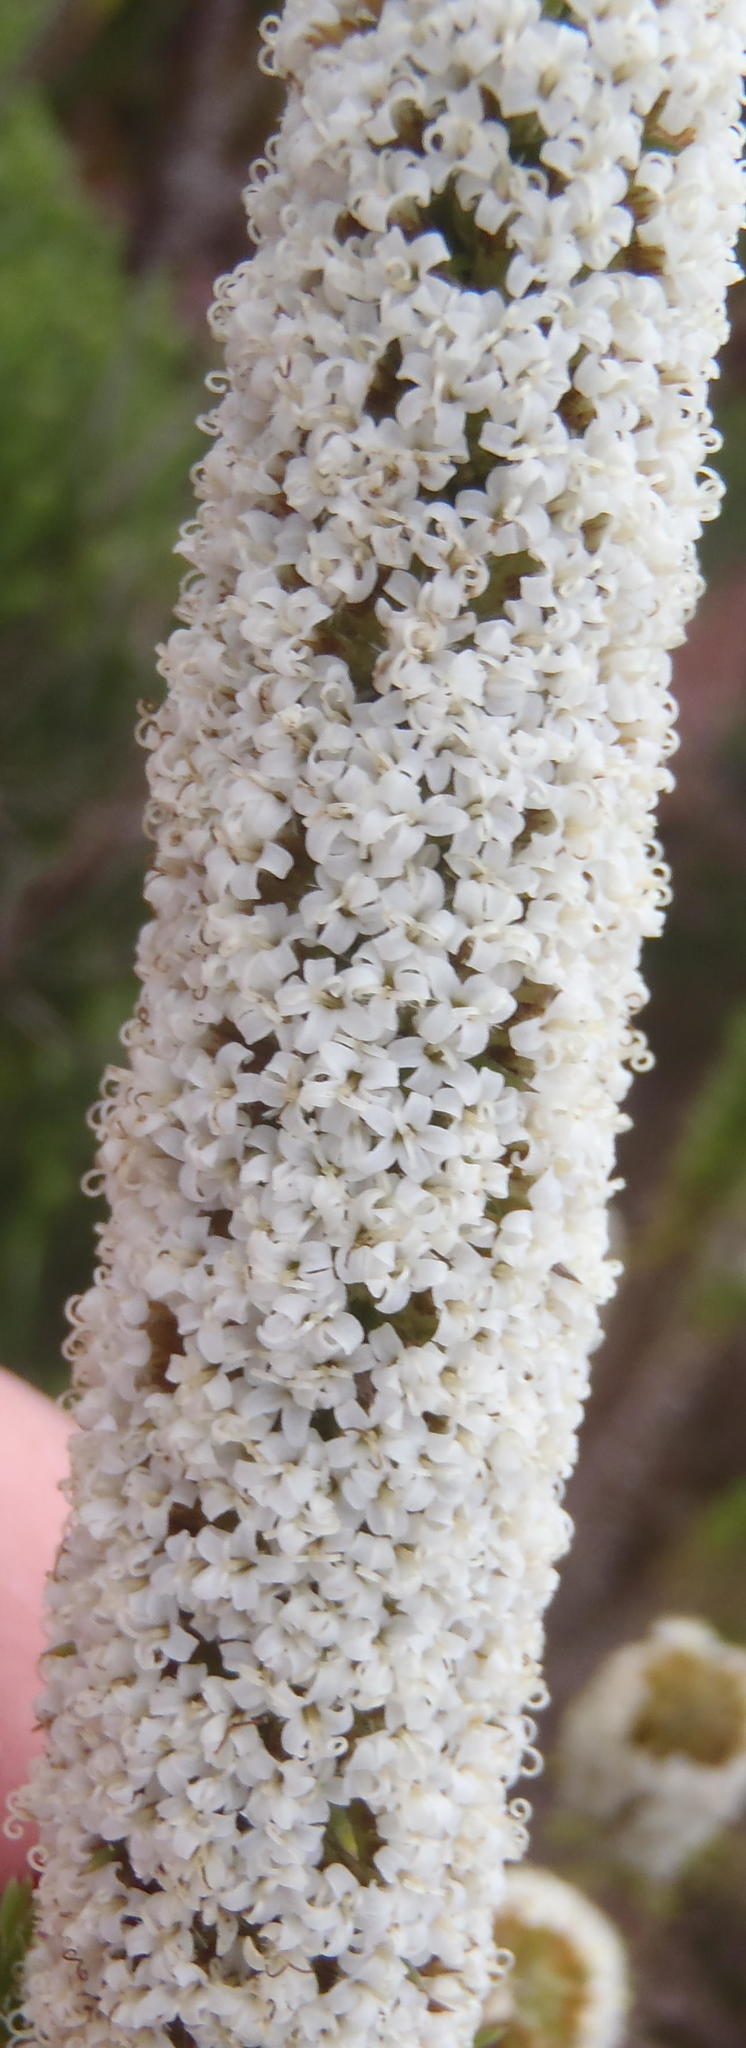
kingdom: Plantae
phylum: Tracheophyta
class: Magnoliopsida
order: Asterales
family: Asteraceae
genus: Stoebe
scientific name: Stoebe alopecuroides
